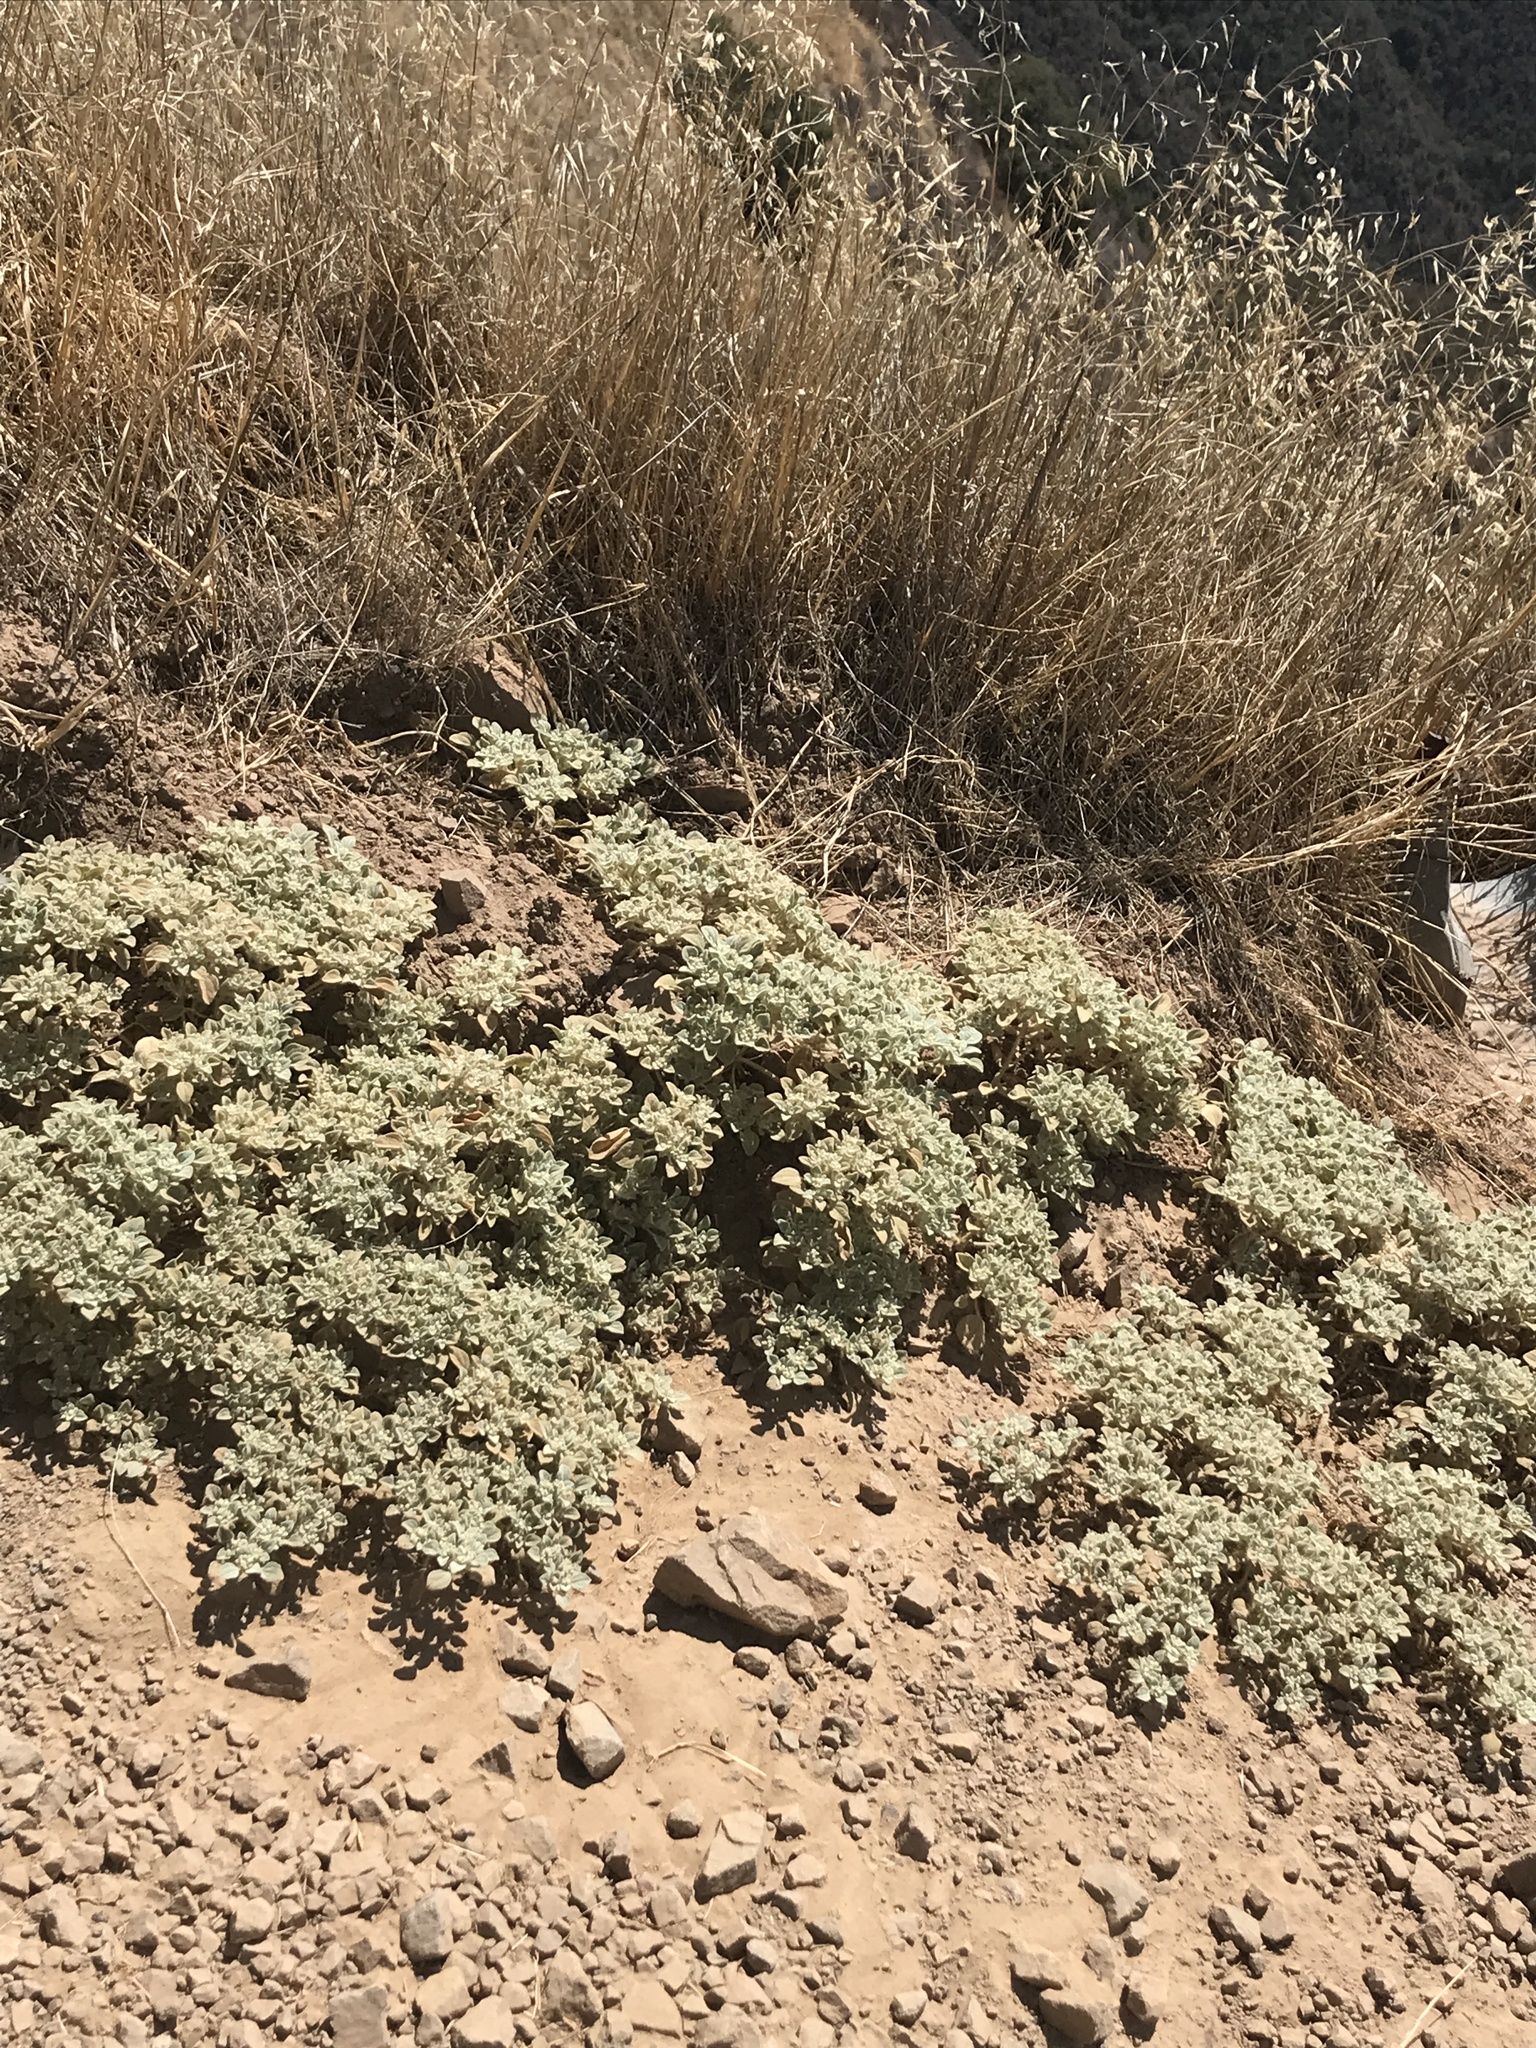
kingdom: Plantae
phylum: Tracheophyta
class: Magnoliopsida
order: Malpighiales
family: Euphorbiaceae
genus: Croton
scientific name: Croton setiger
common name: Dove weed
